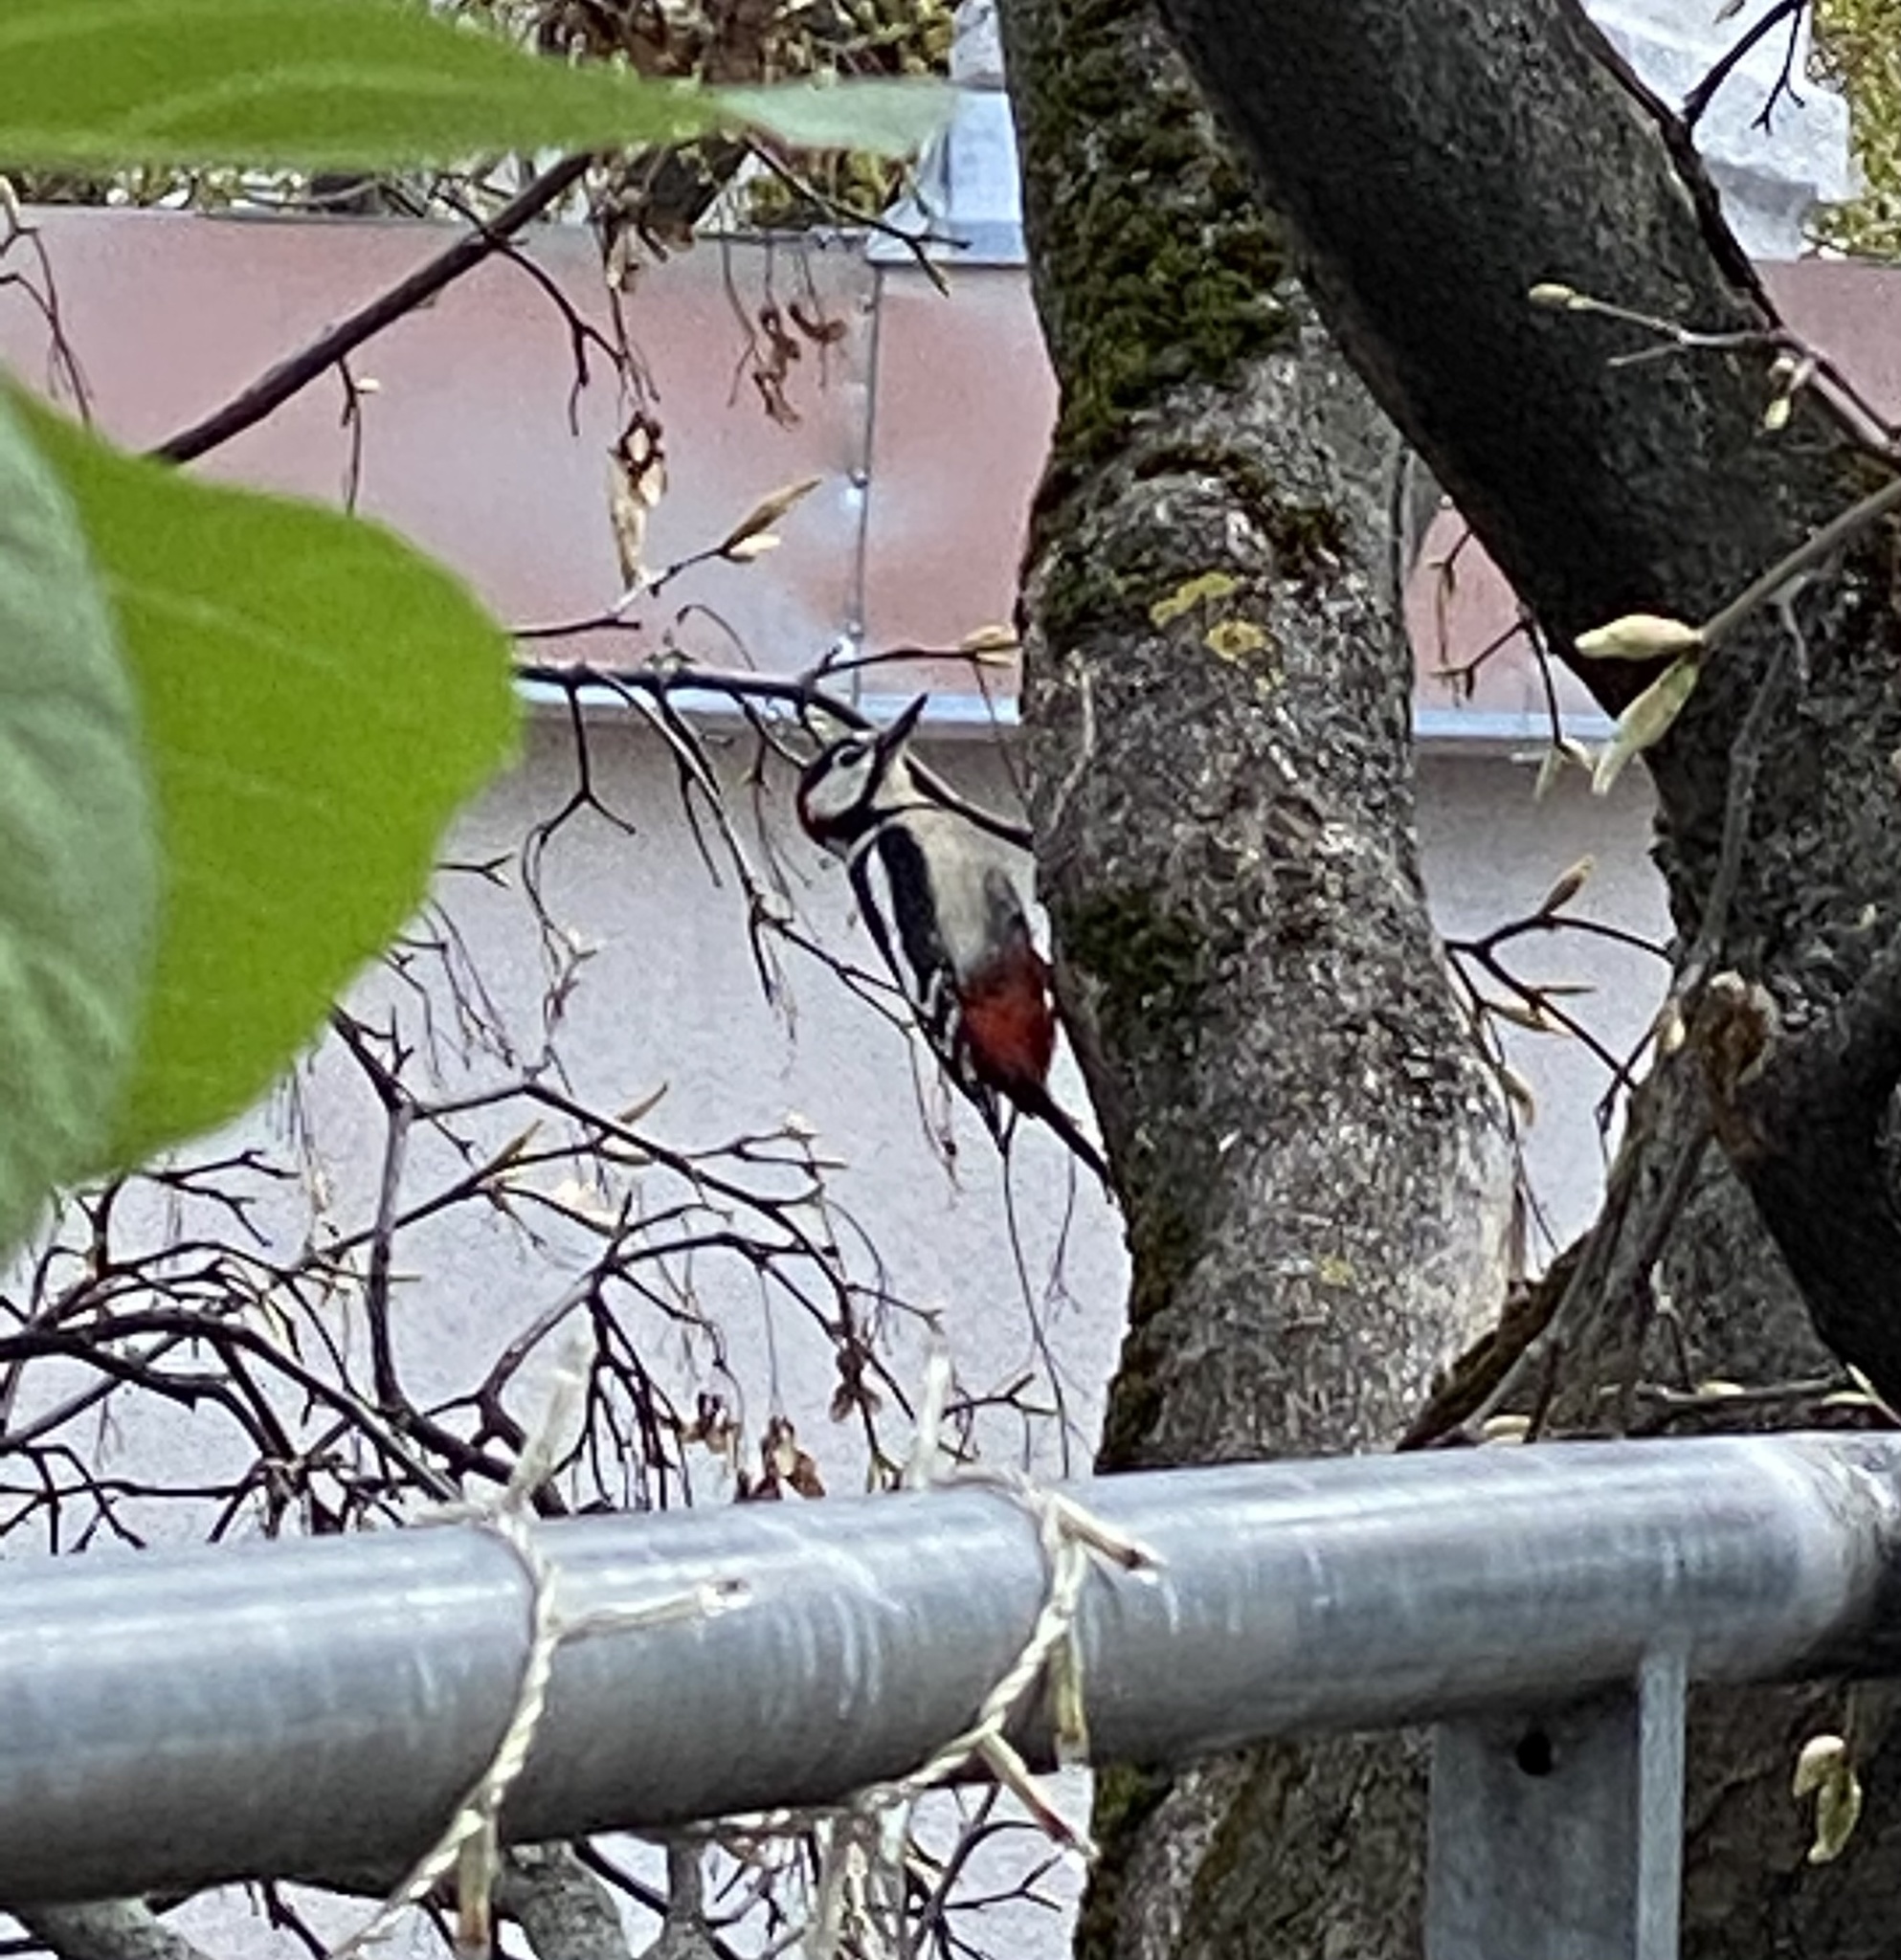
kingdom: Animalia
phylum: Chordata
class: Aves
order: Piciformes
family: Picidae
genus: Dendrocopos
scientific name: Dendrocopos major
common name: Great spotted woodpecker
